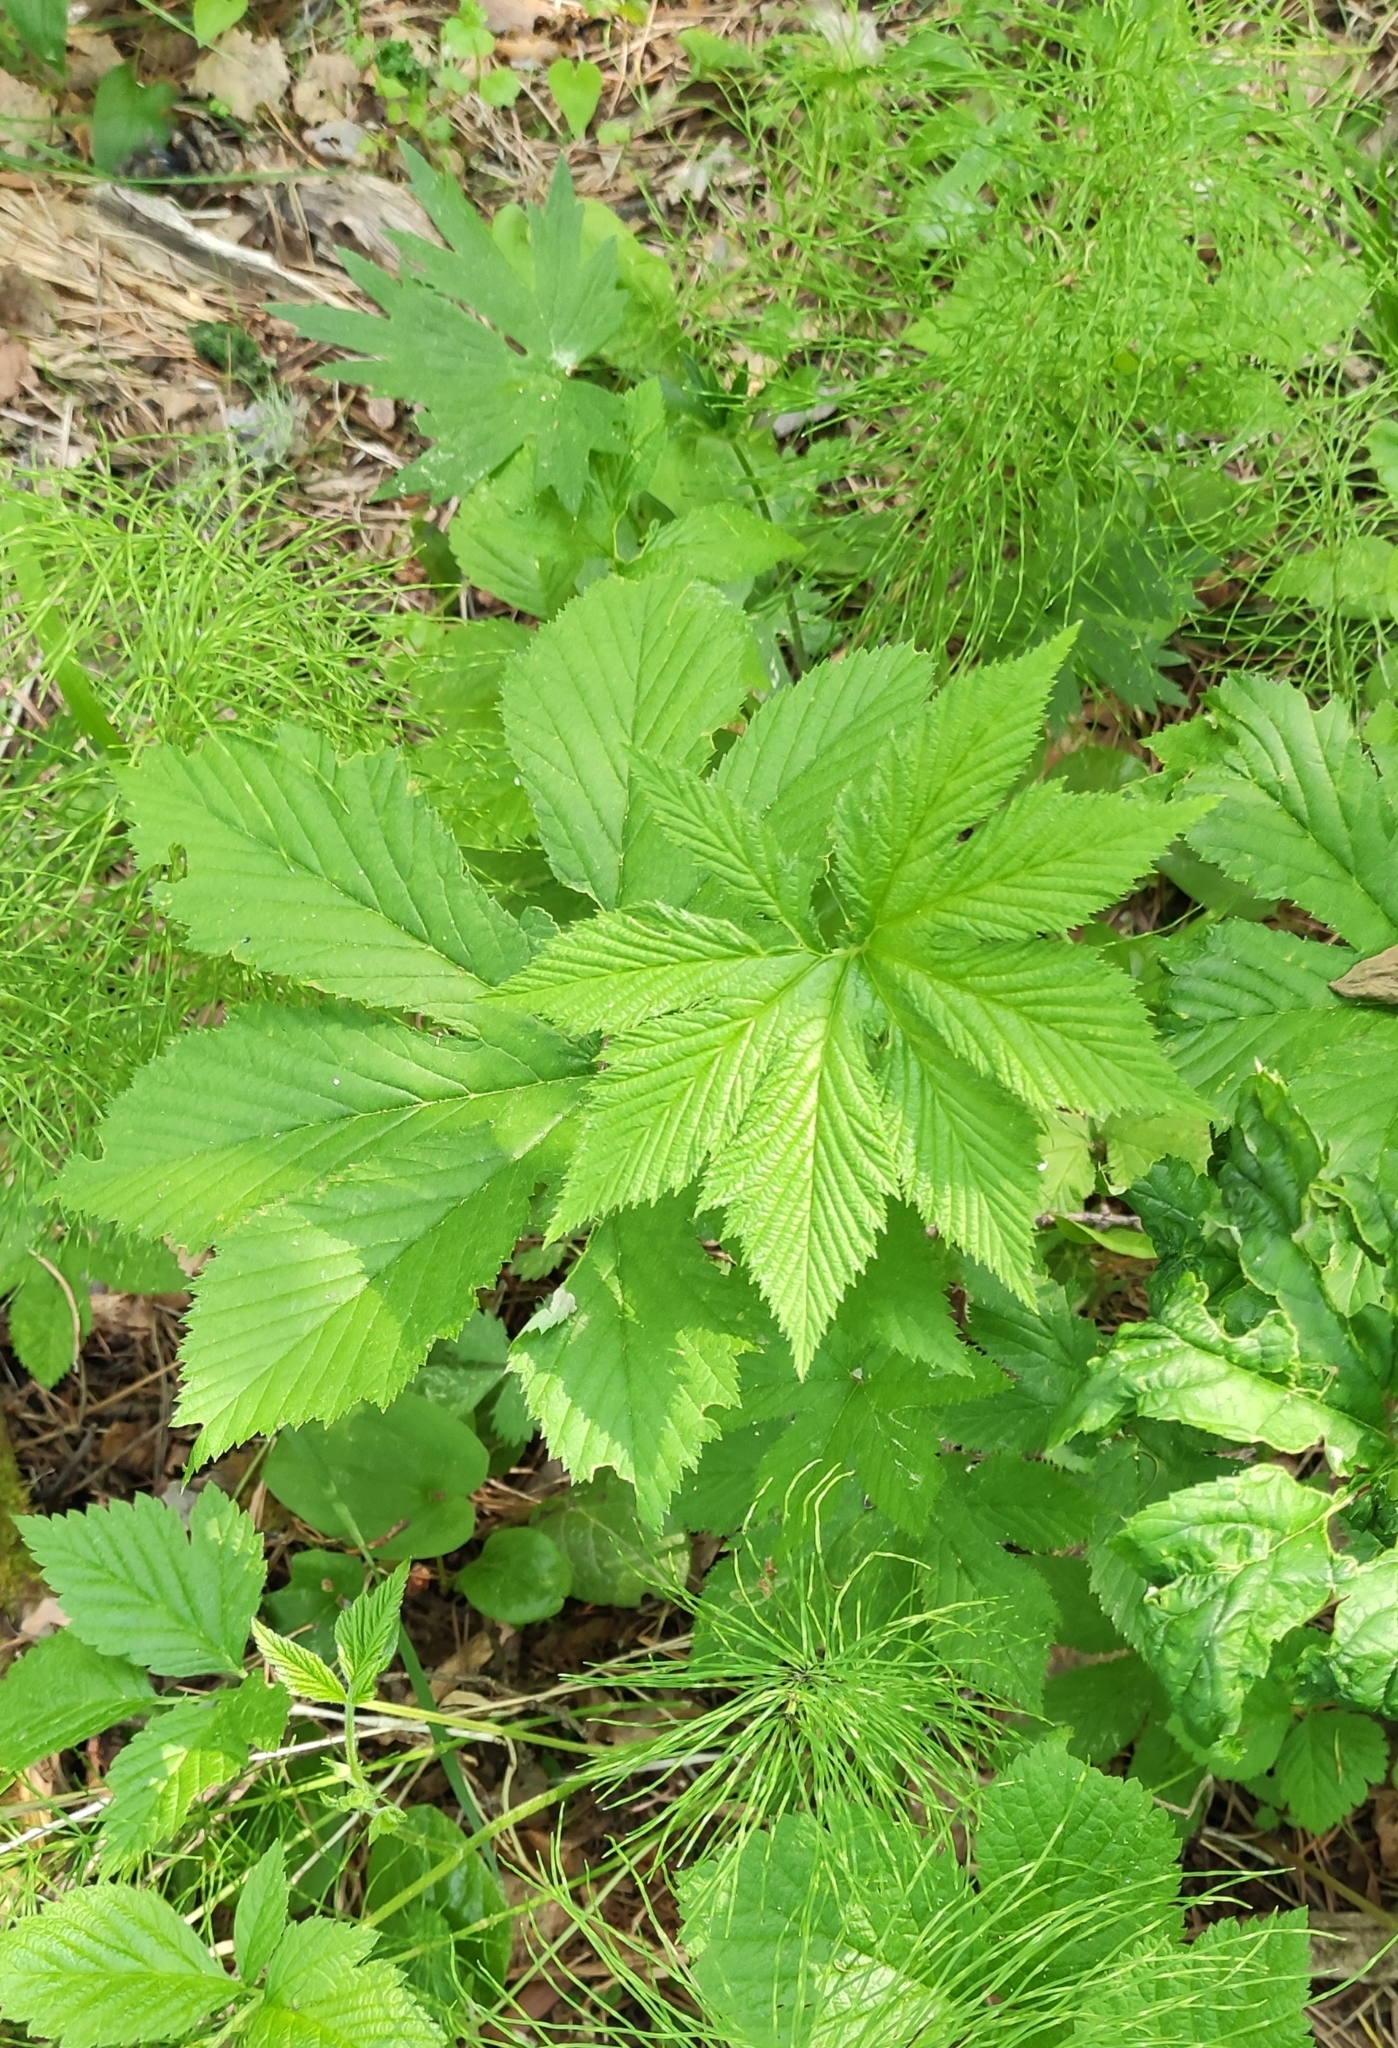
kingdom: Plantae
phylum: Tracheophyta
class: Magnoliopsida
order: Rosales
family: Rosaceae
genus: Filipendula
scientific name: Filipendula digitata
